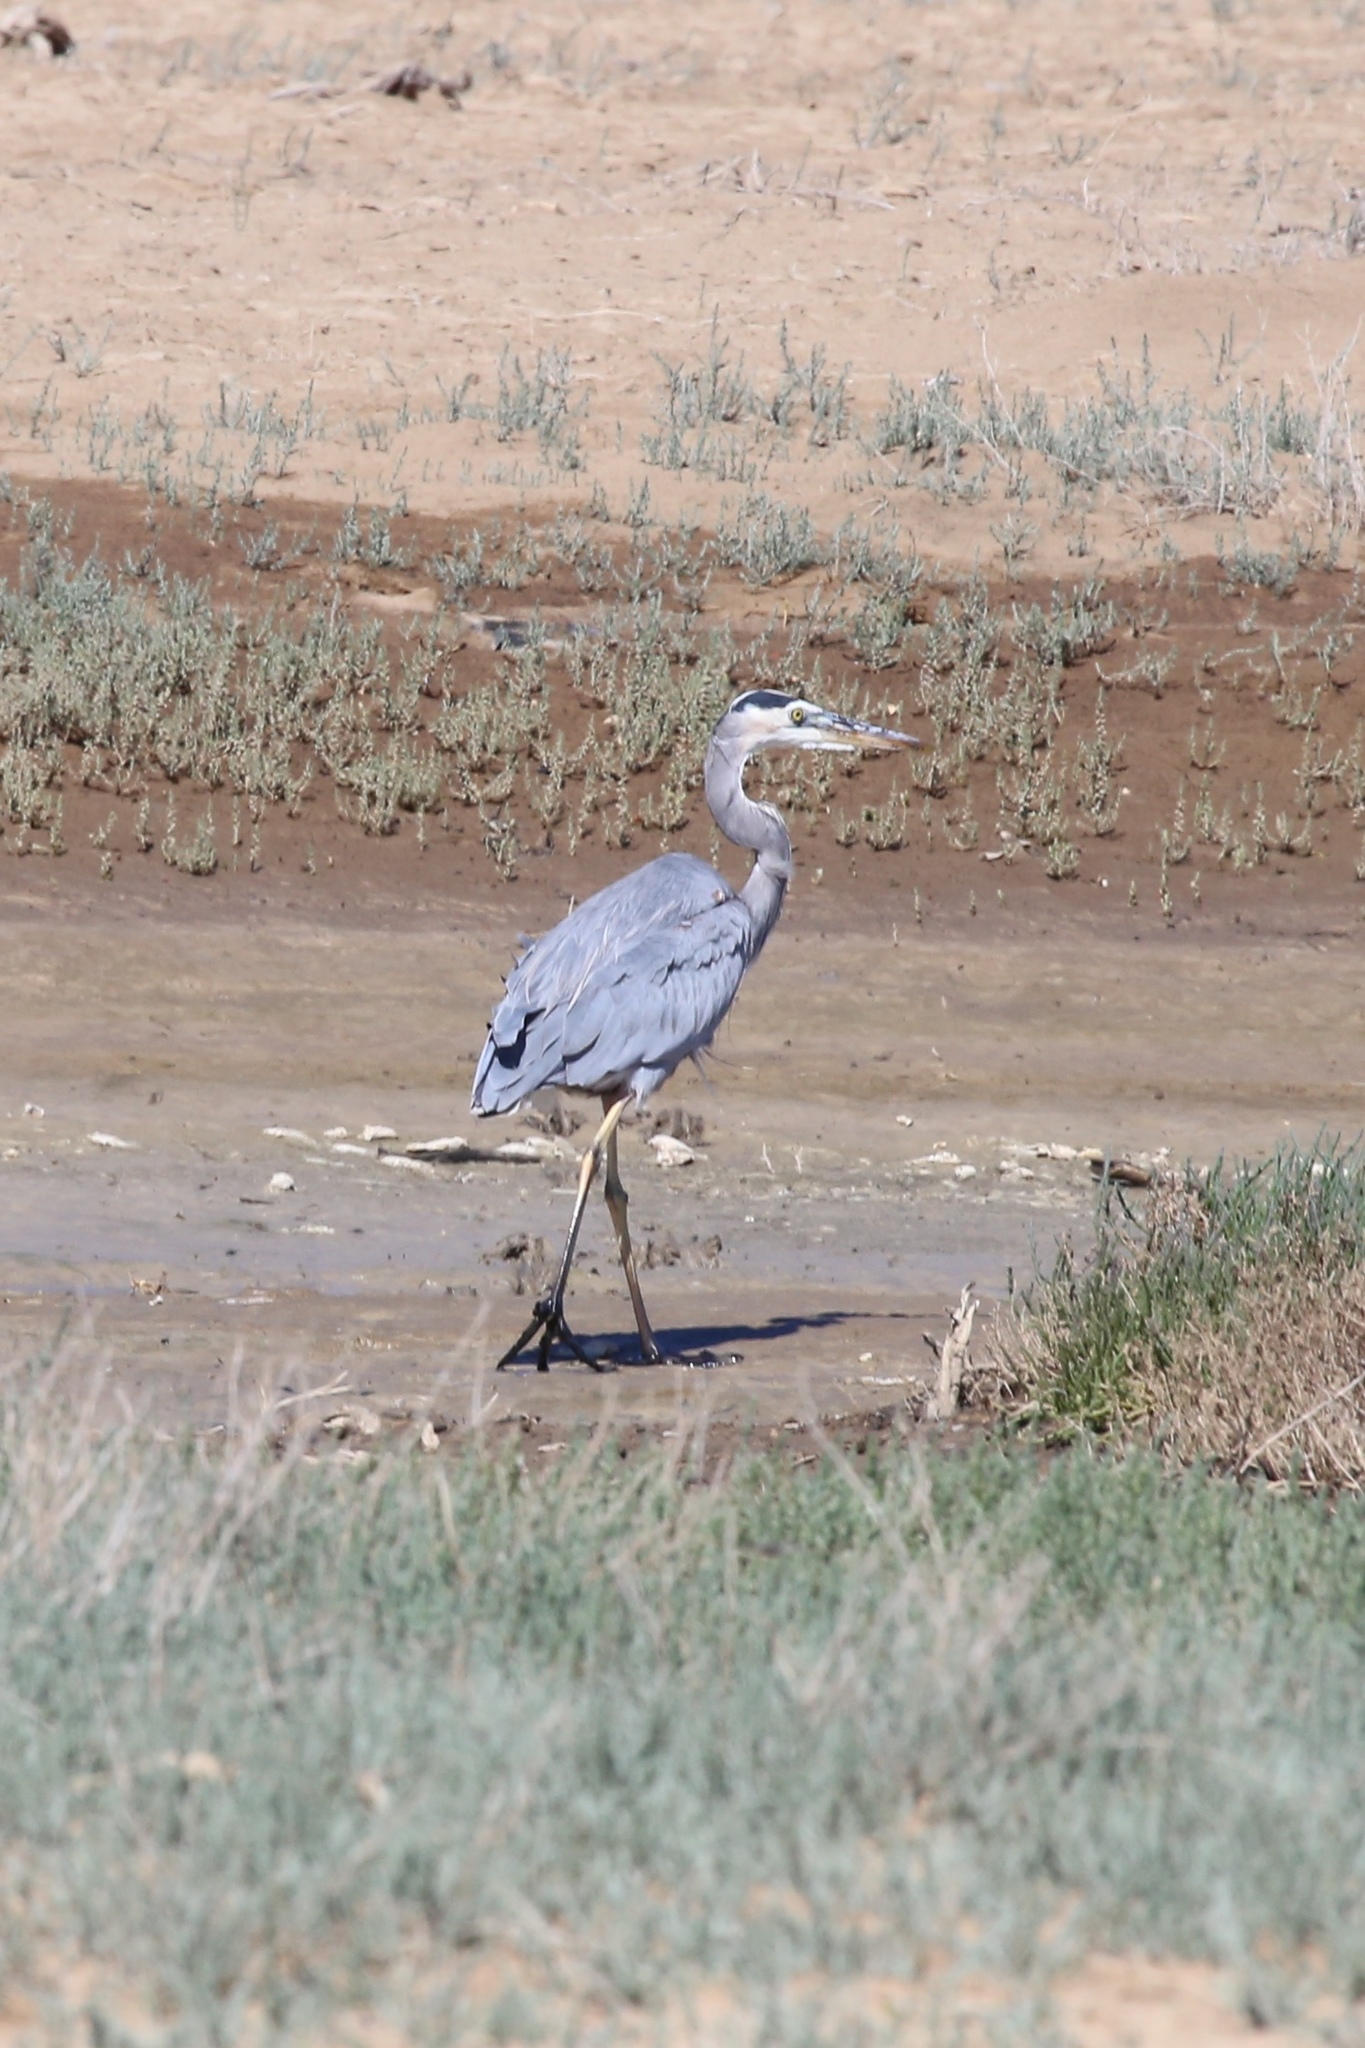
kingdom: Animalia
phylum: Chordata
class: Aves
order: Pelecaniformes
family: Ardeidae
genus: Ardea
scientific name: Ardea herodias
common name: Great blue heron
